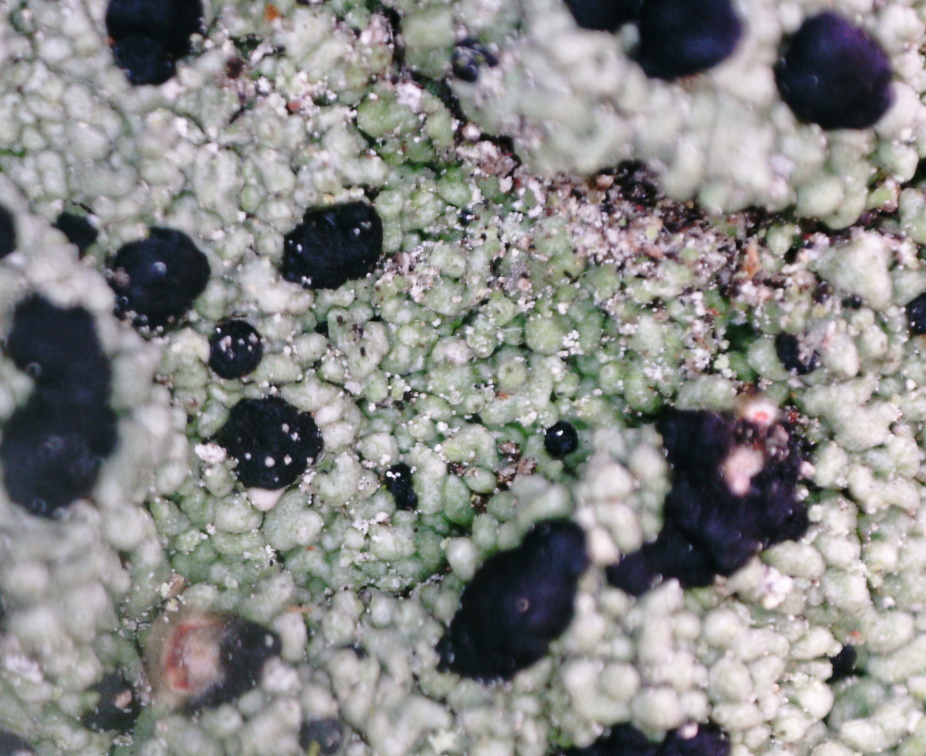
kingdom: Fungi
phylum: Ascomycota
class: Lecanoromycetes
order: Lecanorales
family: Tephromelataceae
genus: Mycoblastus
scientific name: Mycoblastus sanguinarius
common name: Bloody-heart lichen
